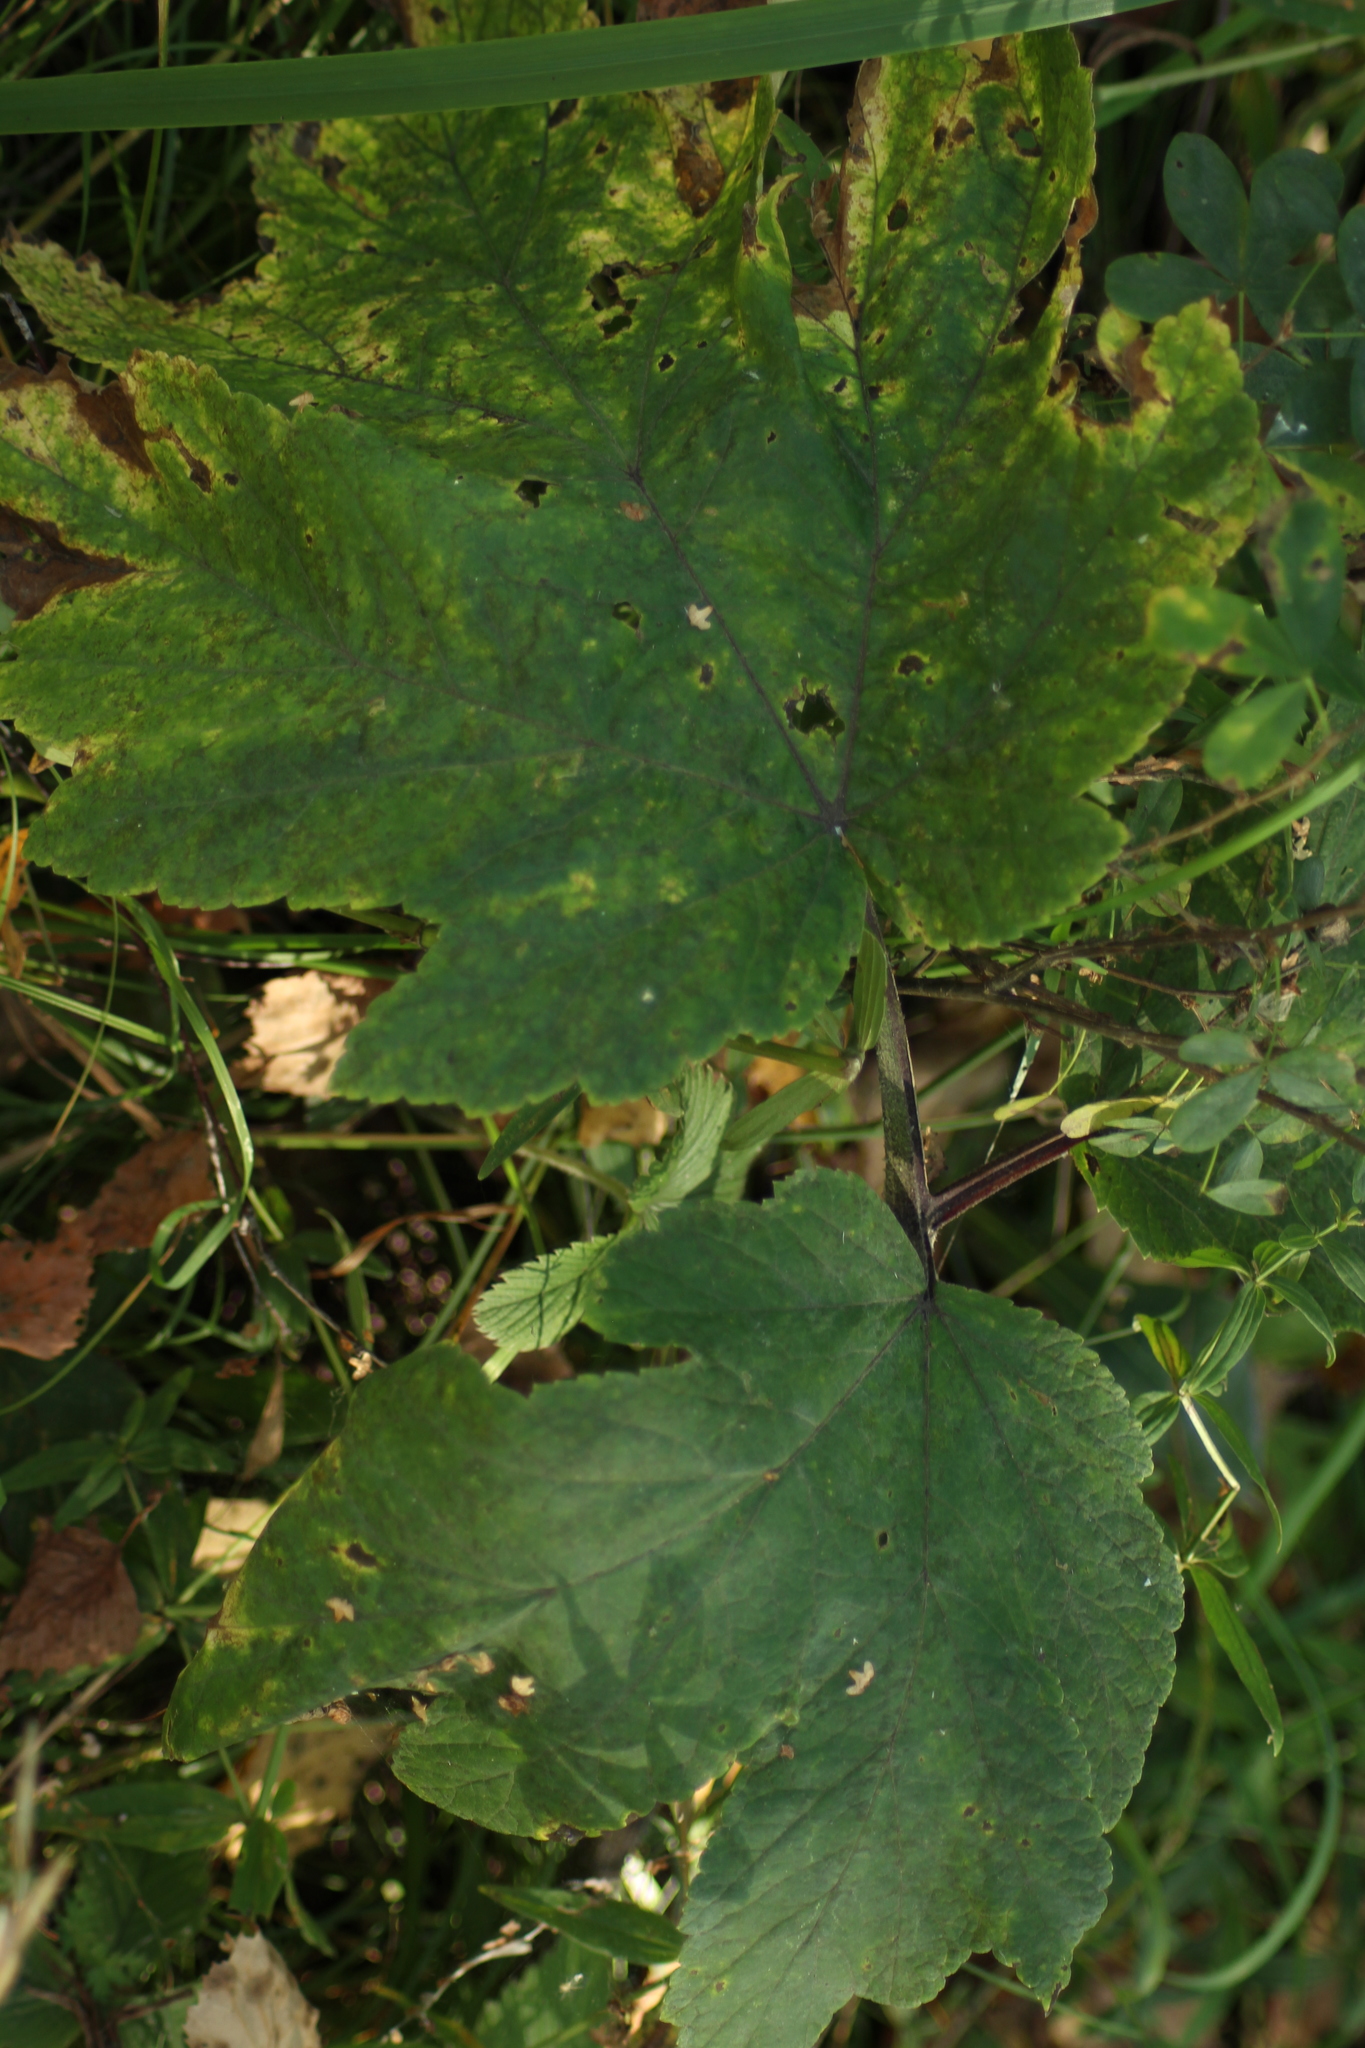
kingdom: Plantae
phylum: Tracheophyta
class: Magnoliopsida
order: Apiales
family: Apiaceae
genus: Heracleum
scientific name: Heracleum dissectum
